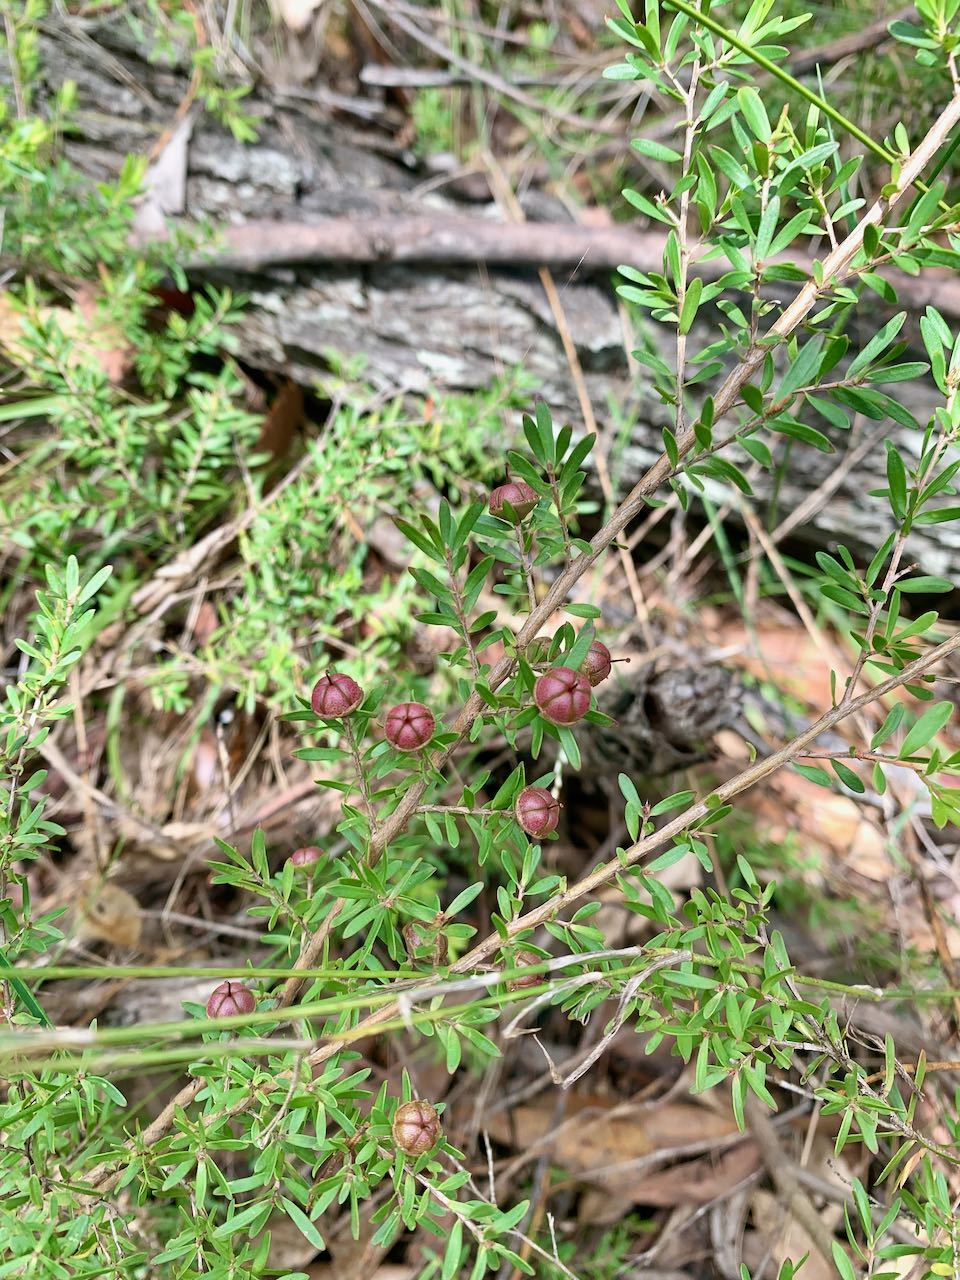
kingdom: Plantae
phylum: Tracheophyta
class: Magnoliopsida
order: Myrtales
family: Myrtaceae
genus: Leptospermum
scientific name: Leptospermum polygalifolium
